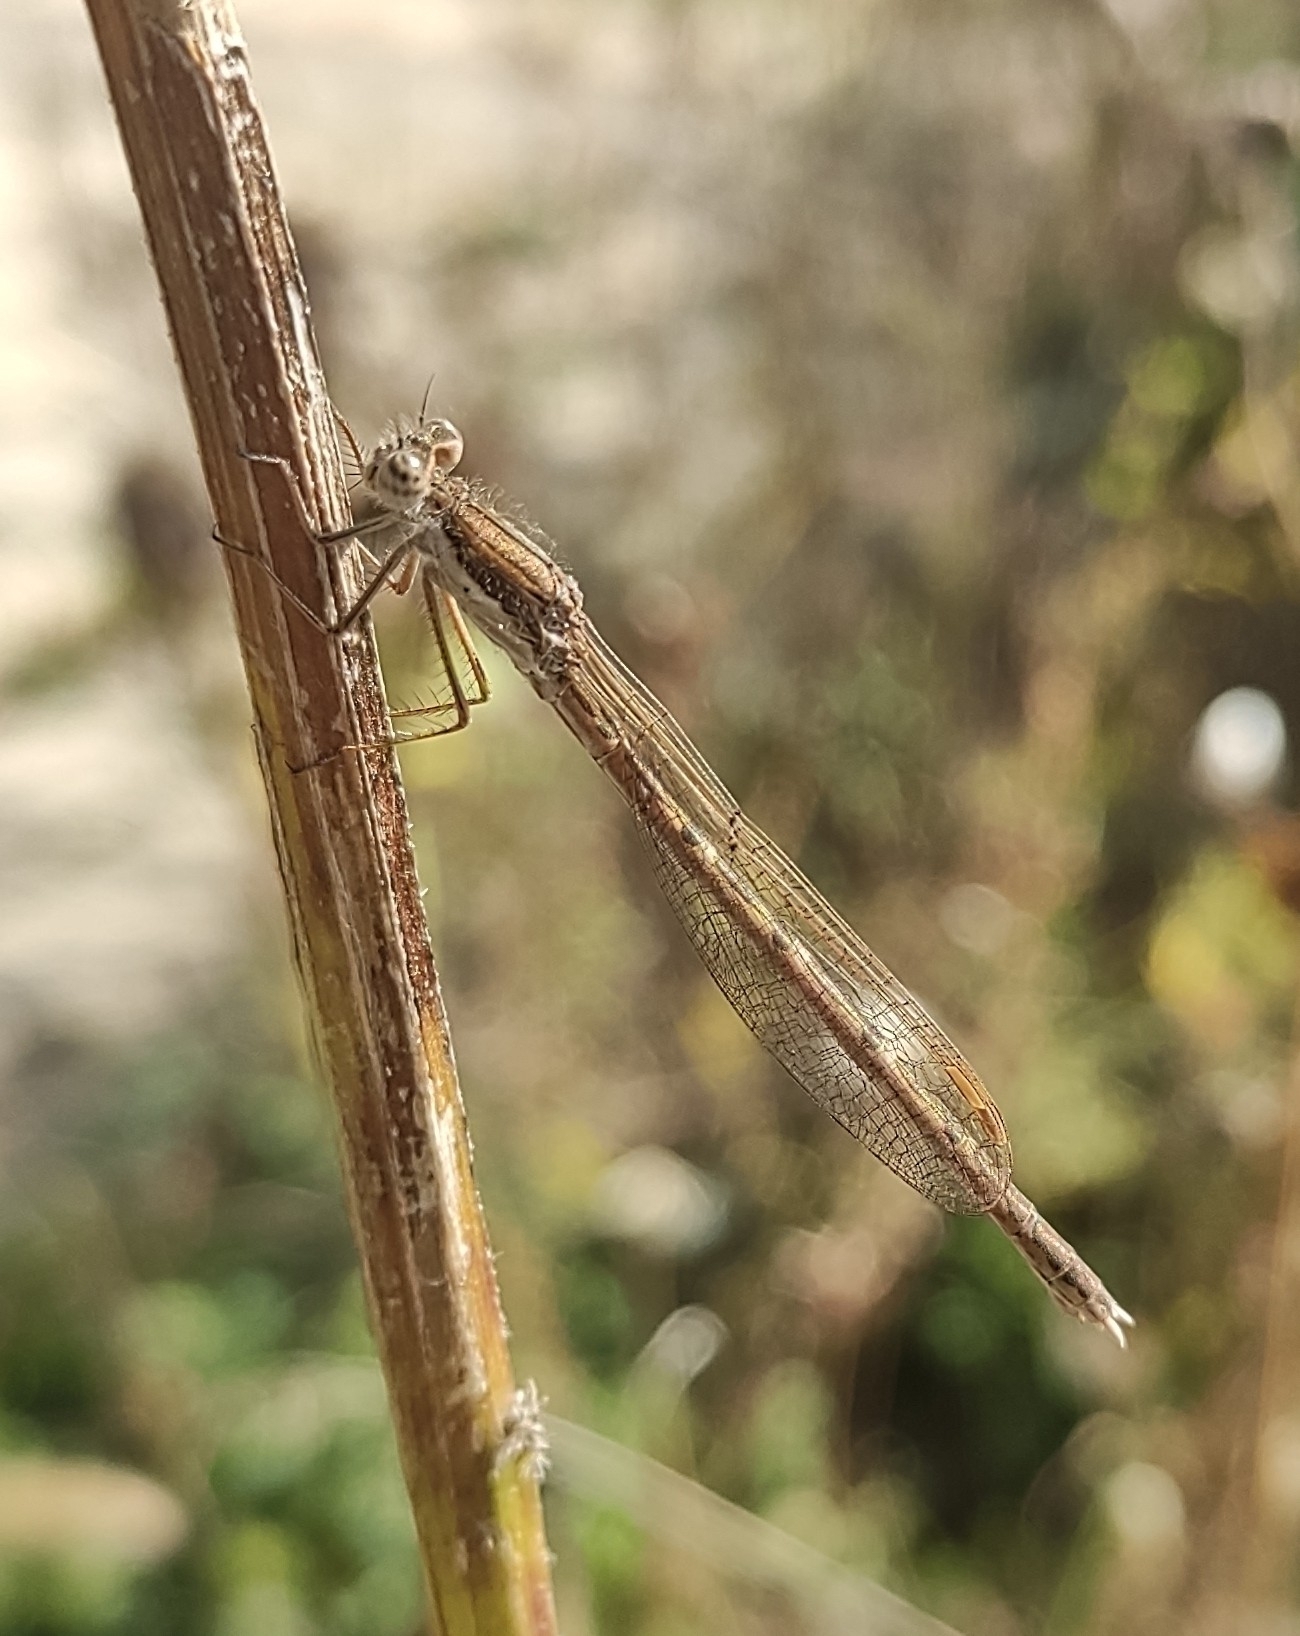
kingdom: Animalia
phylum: Arthropoda
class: Insecta
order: Odonata
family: Lestidae
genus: Sympecma
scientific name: Sympecma fusca
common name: Common winter damsel
